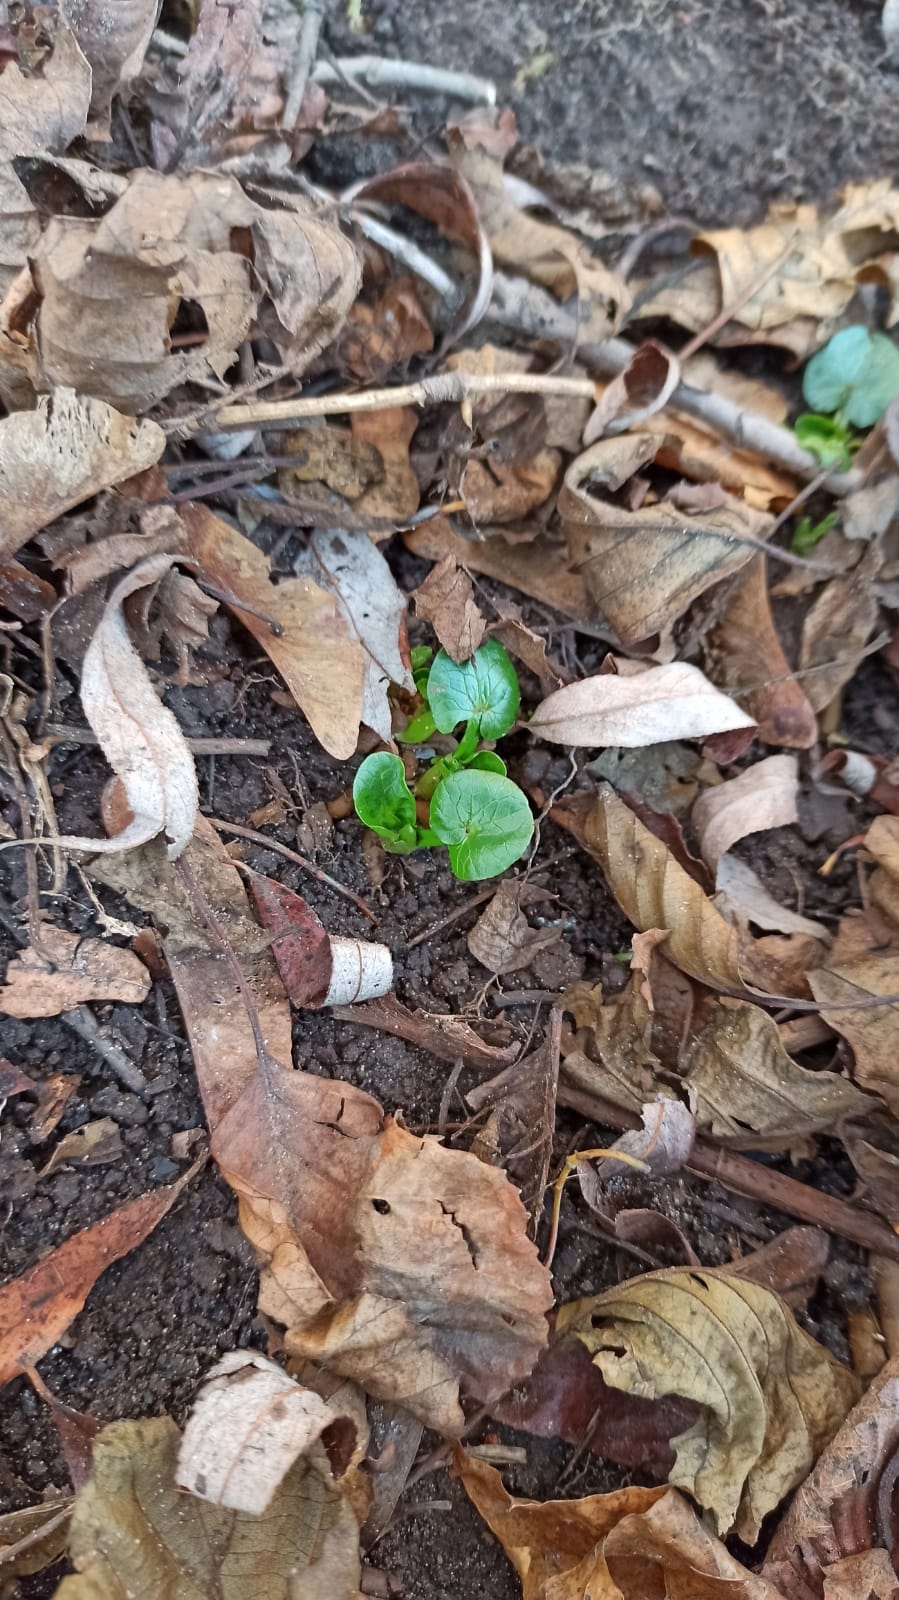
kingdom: Plantae
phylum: Tracheophyta
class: Magnoliopsida
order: Ranunculales
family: Ranunculaceae
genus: Ficaria
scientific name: Ficaria verna
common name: Lesser celandine
